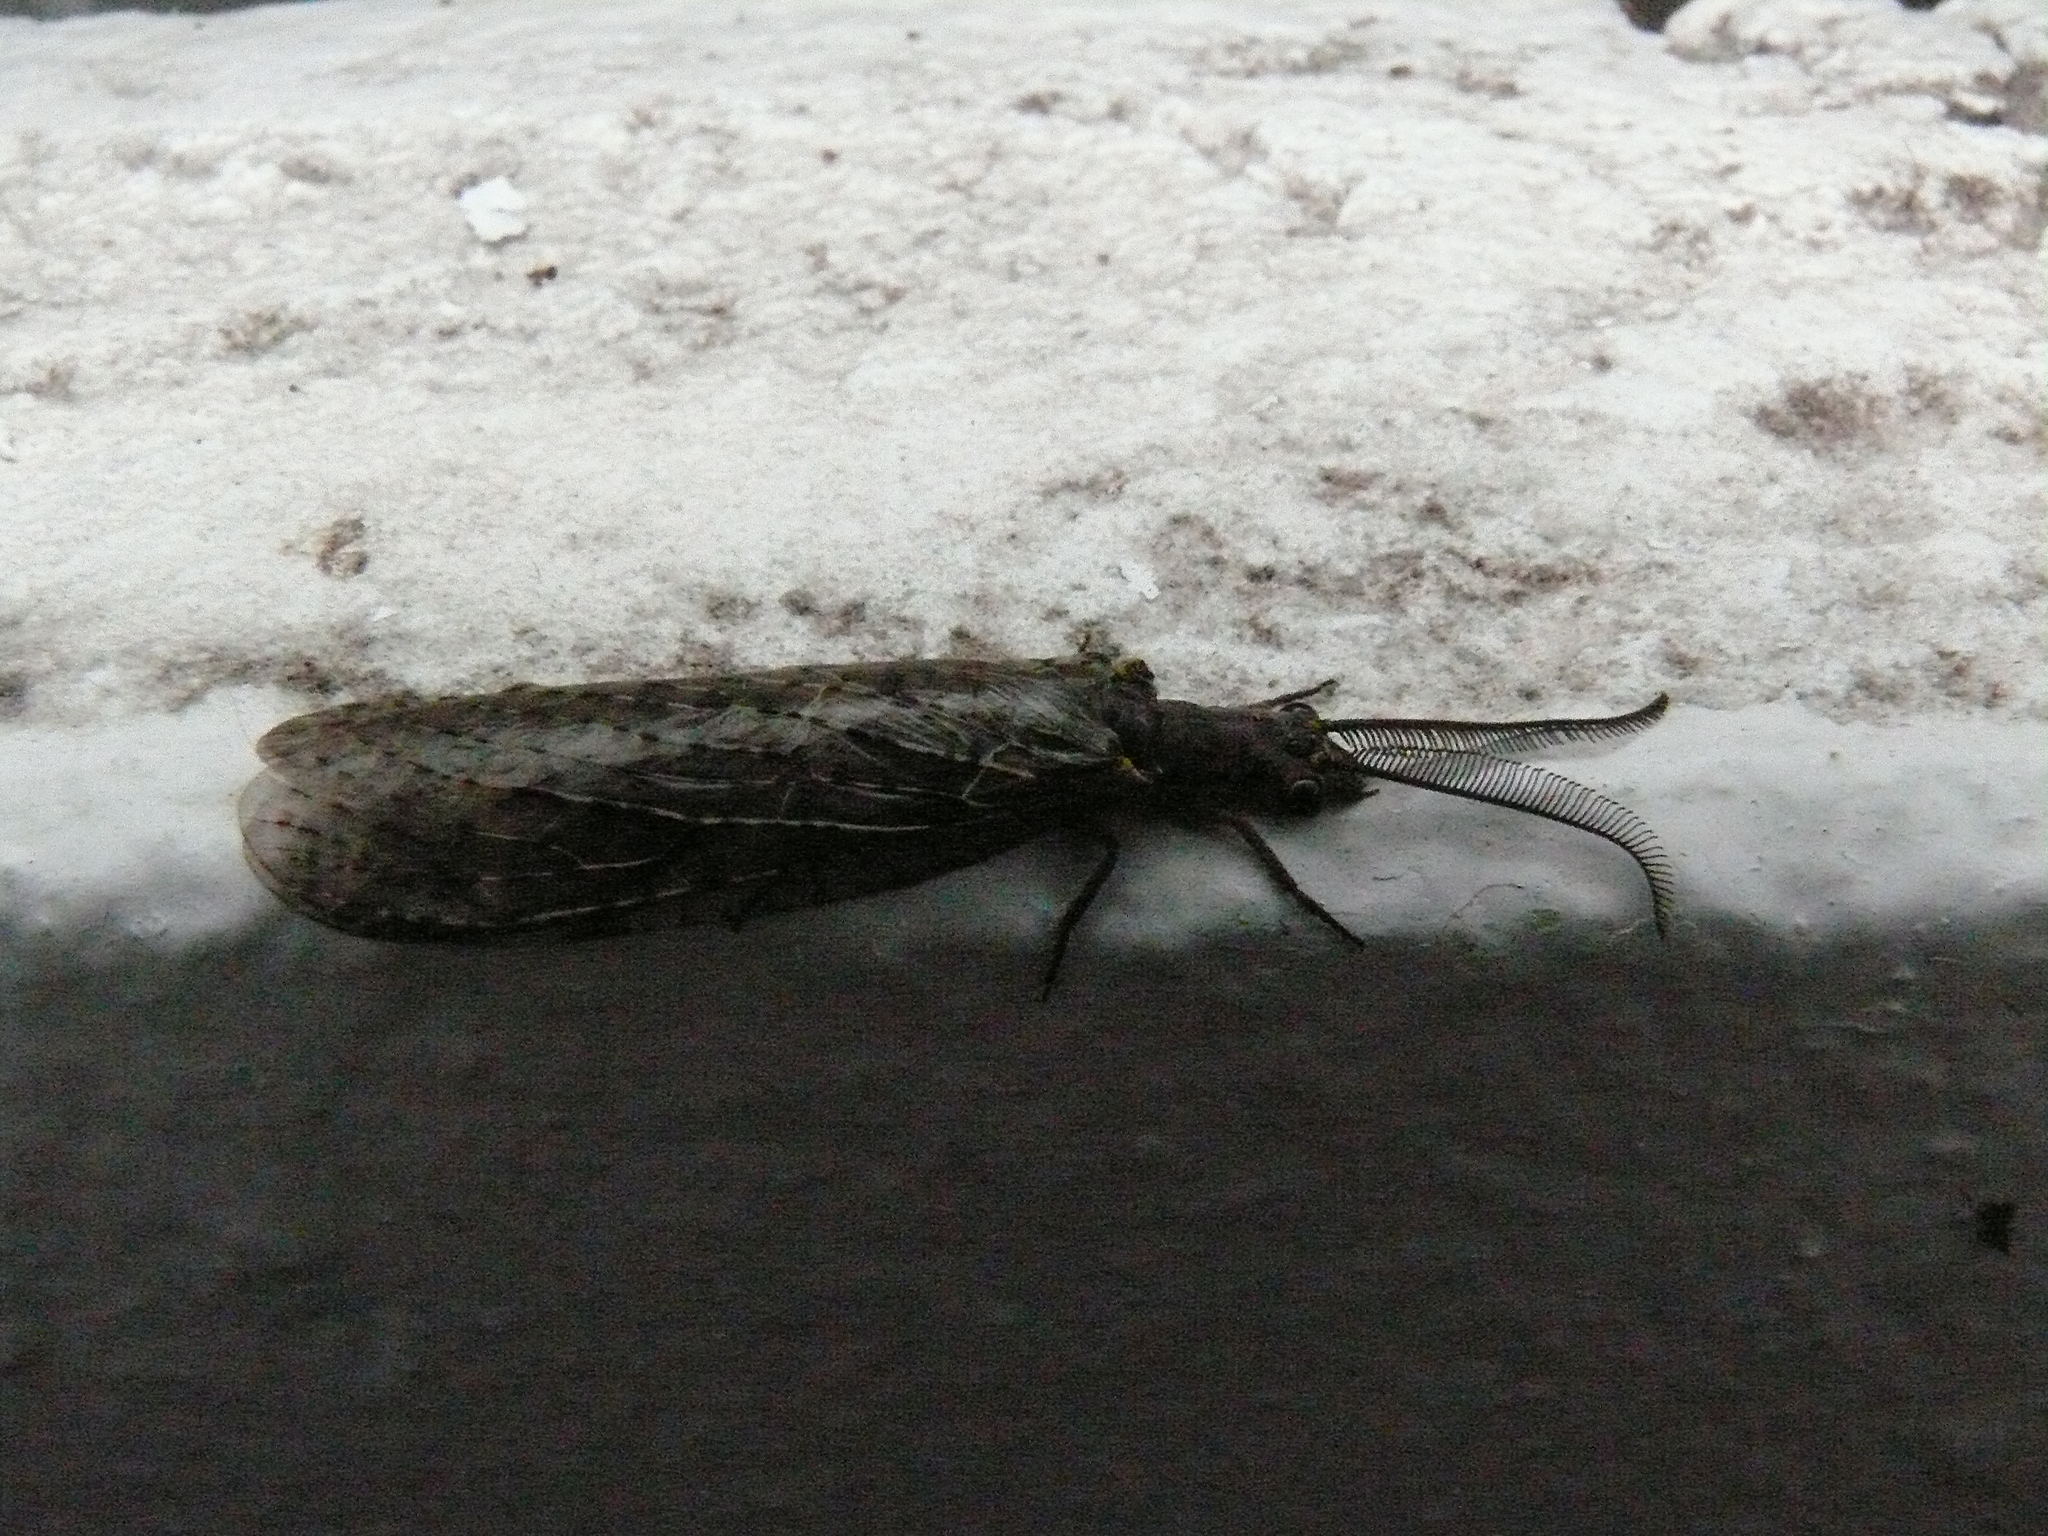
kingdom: Animalia
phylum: Arthropoda
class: Insecta
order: Megaloptera
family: Corydalidae
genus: Chauliodes
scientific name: Chauliodes rastricornis
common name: Spring fishfly
